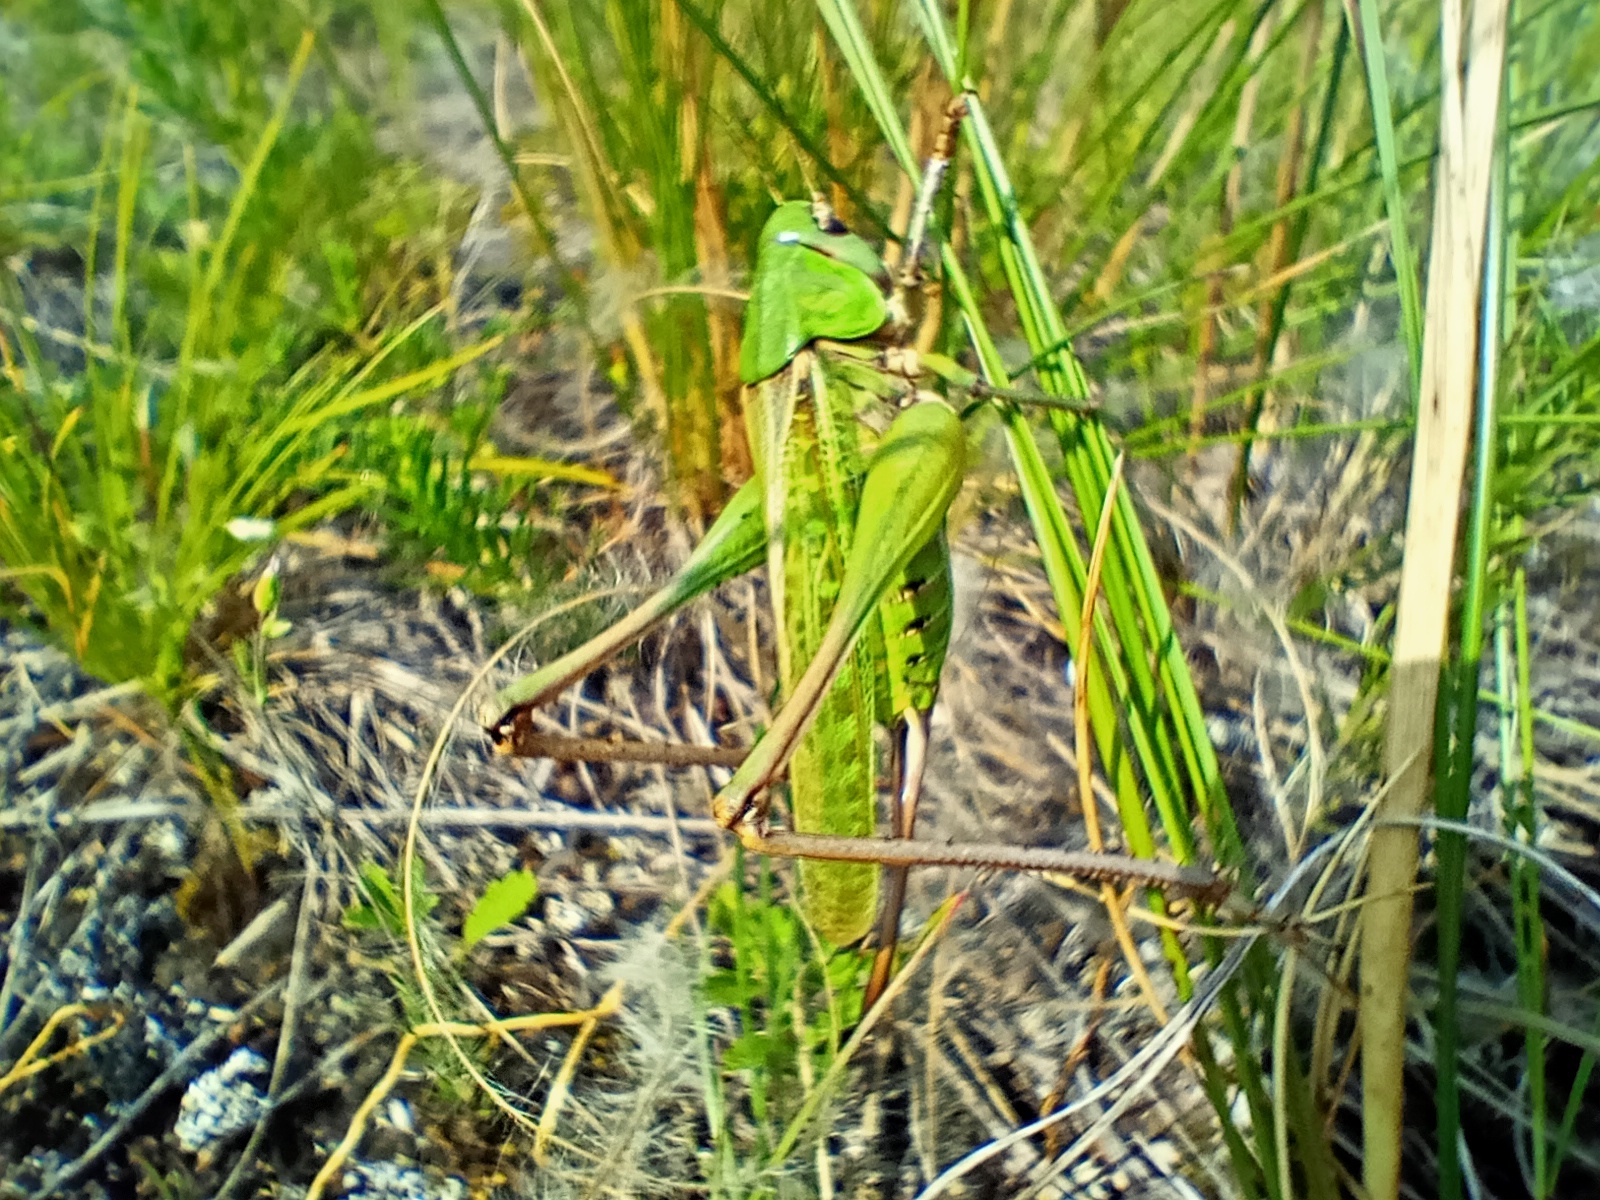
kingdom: Animalia
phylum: Arthropoda
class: Insecta
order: Orthoptera
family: Tettigoniidae
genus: Decticus
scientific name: Decticus verrucivorus
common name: Wart-biter
